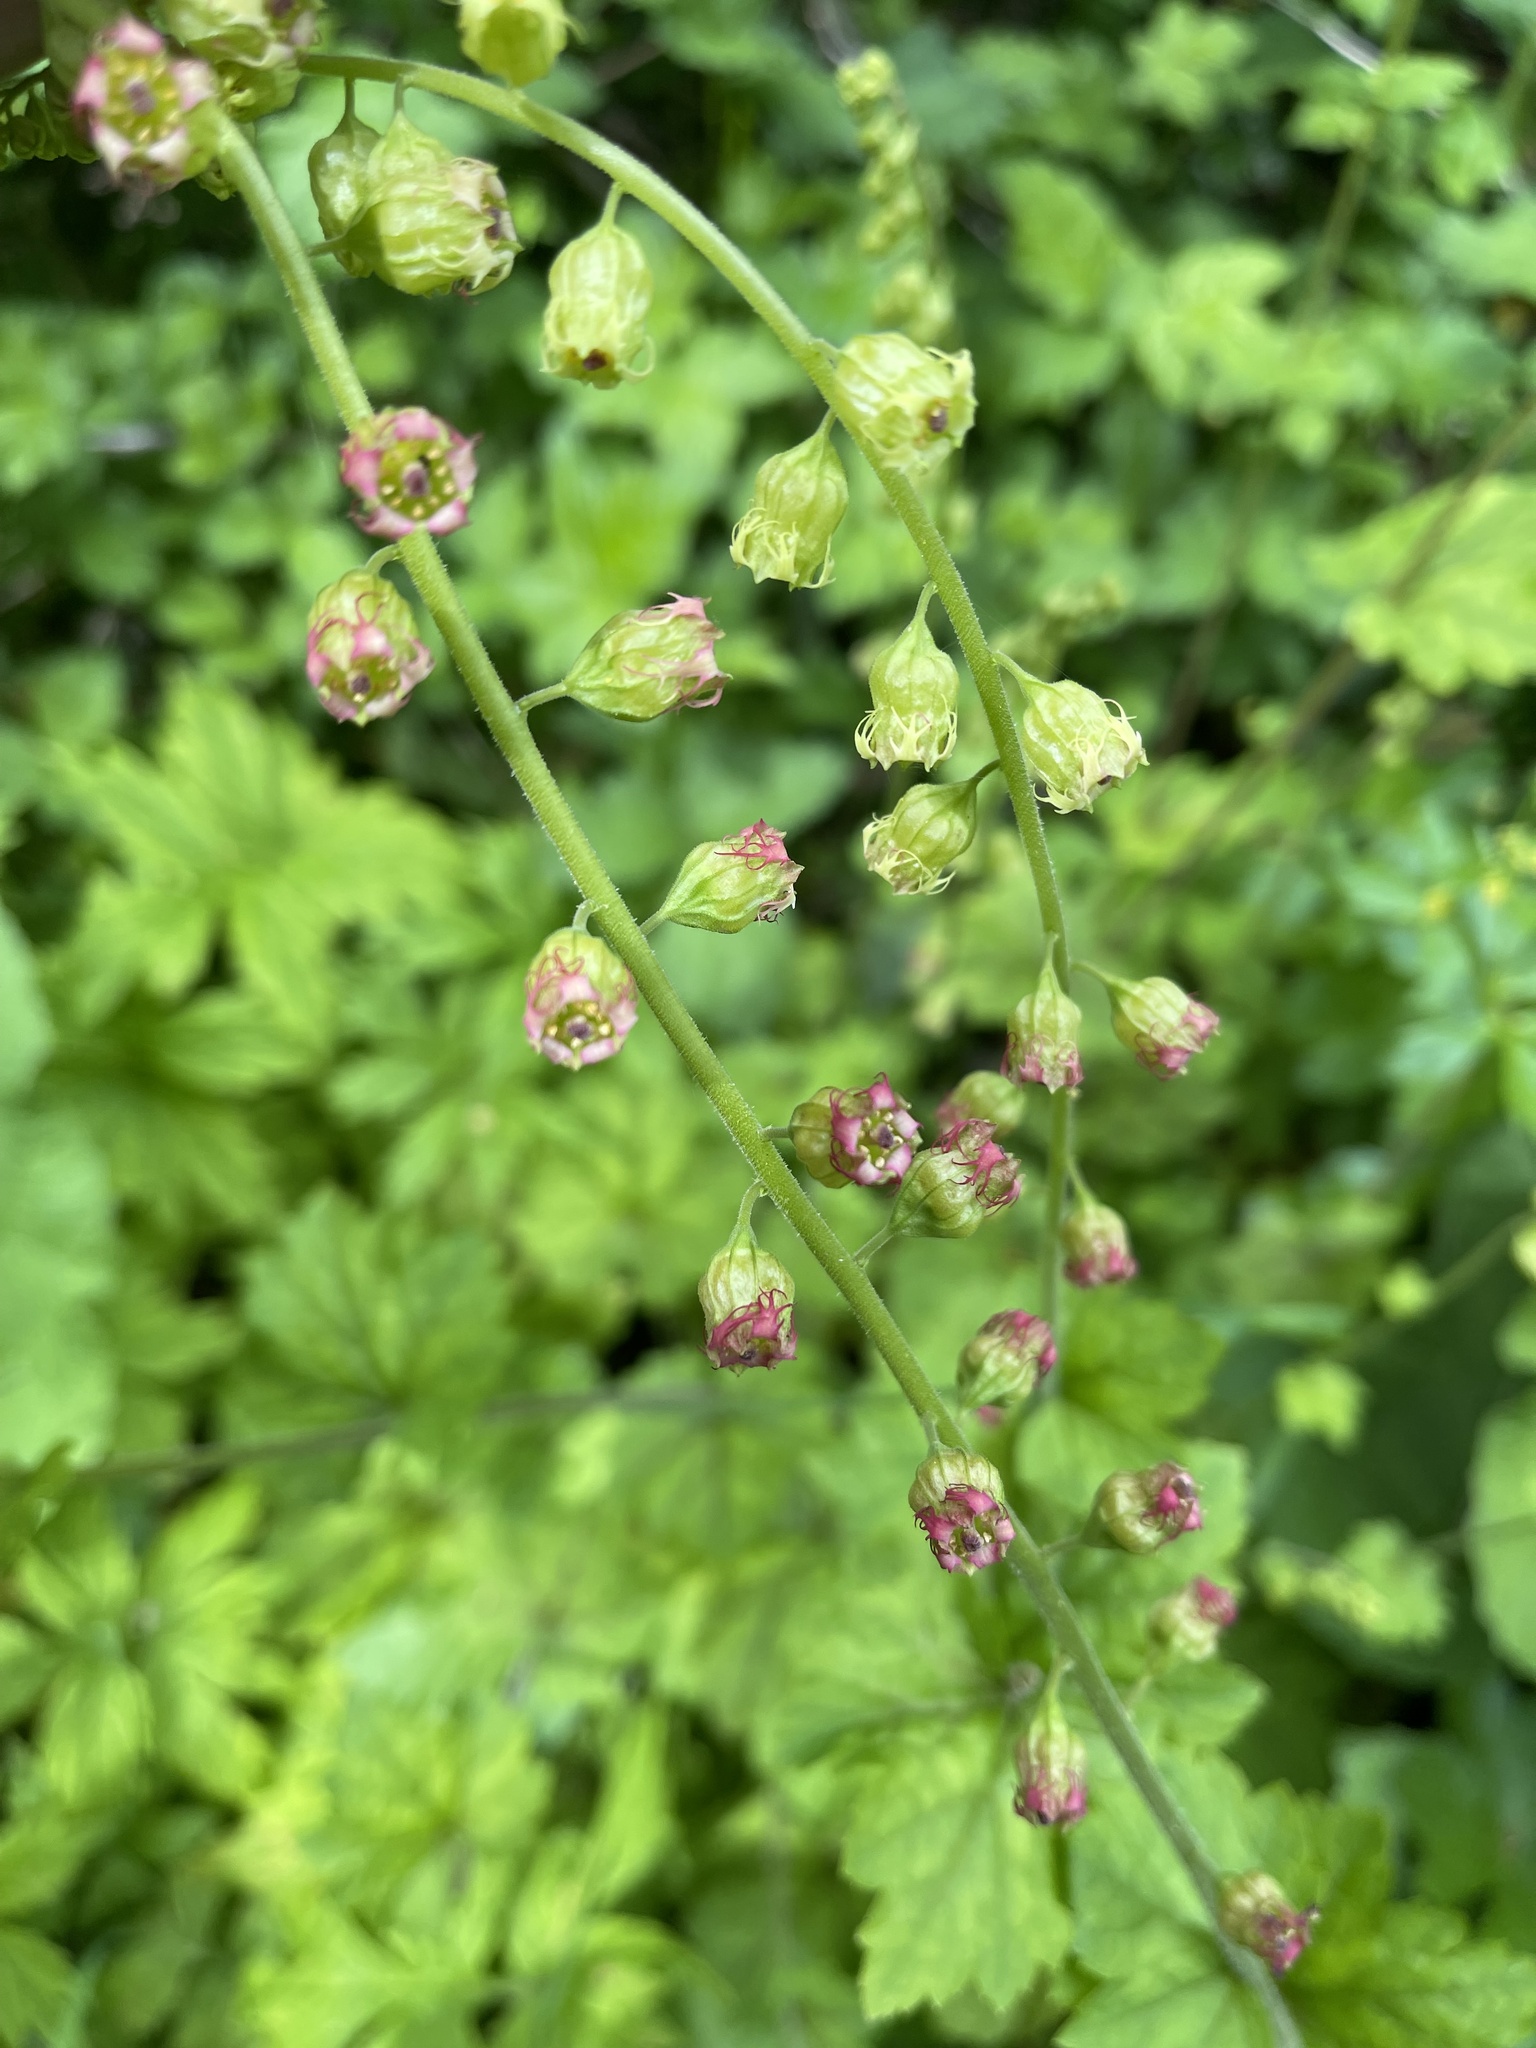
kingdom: Plantae
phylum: Tracheophyta
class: Magnoliopsida
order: Saxifragales
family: Saxifragaceae
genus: Tellima
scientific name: Tellima grandiflora
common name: Fringecups
